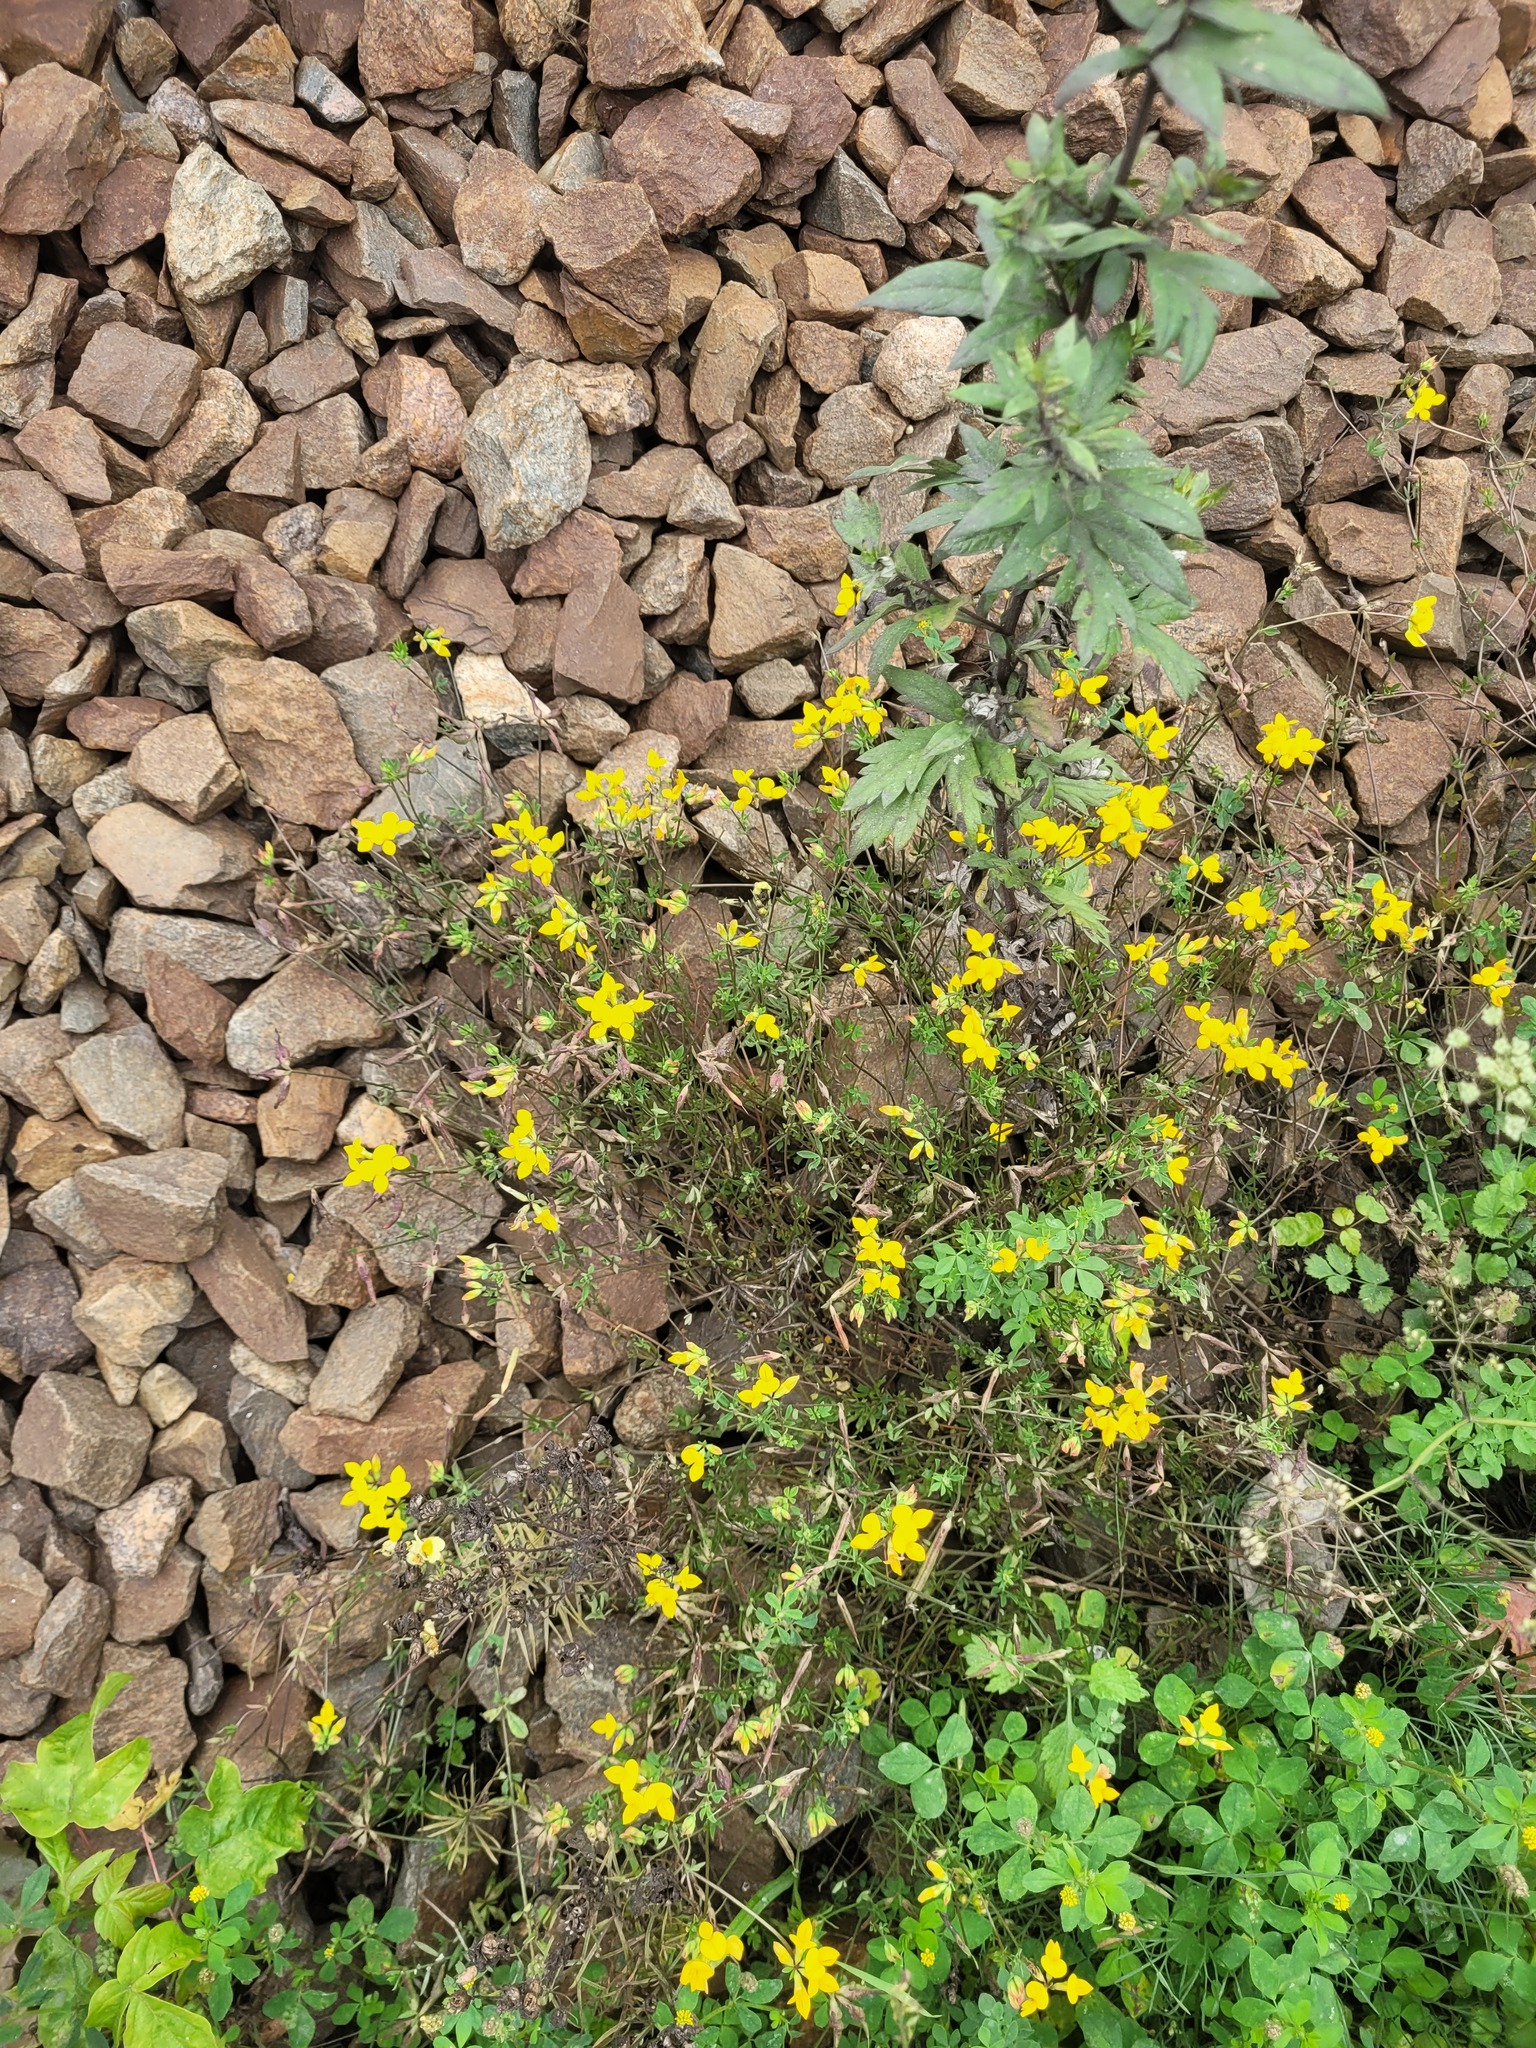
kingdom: Plantae
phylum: Tracheophyta
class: Magnoliopsida
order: Fabales
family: Fabaceae
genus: Lotus
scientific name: Lotus corniculatus
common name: Common bird's-foot-trefoil
